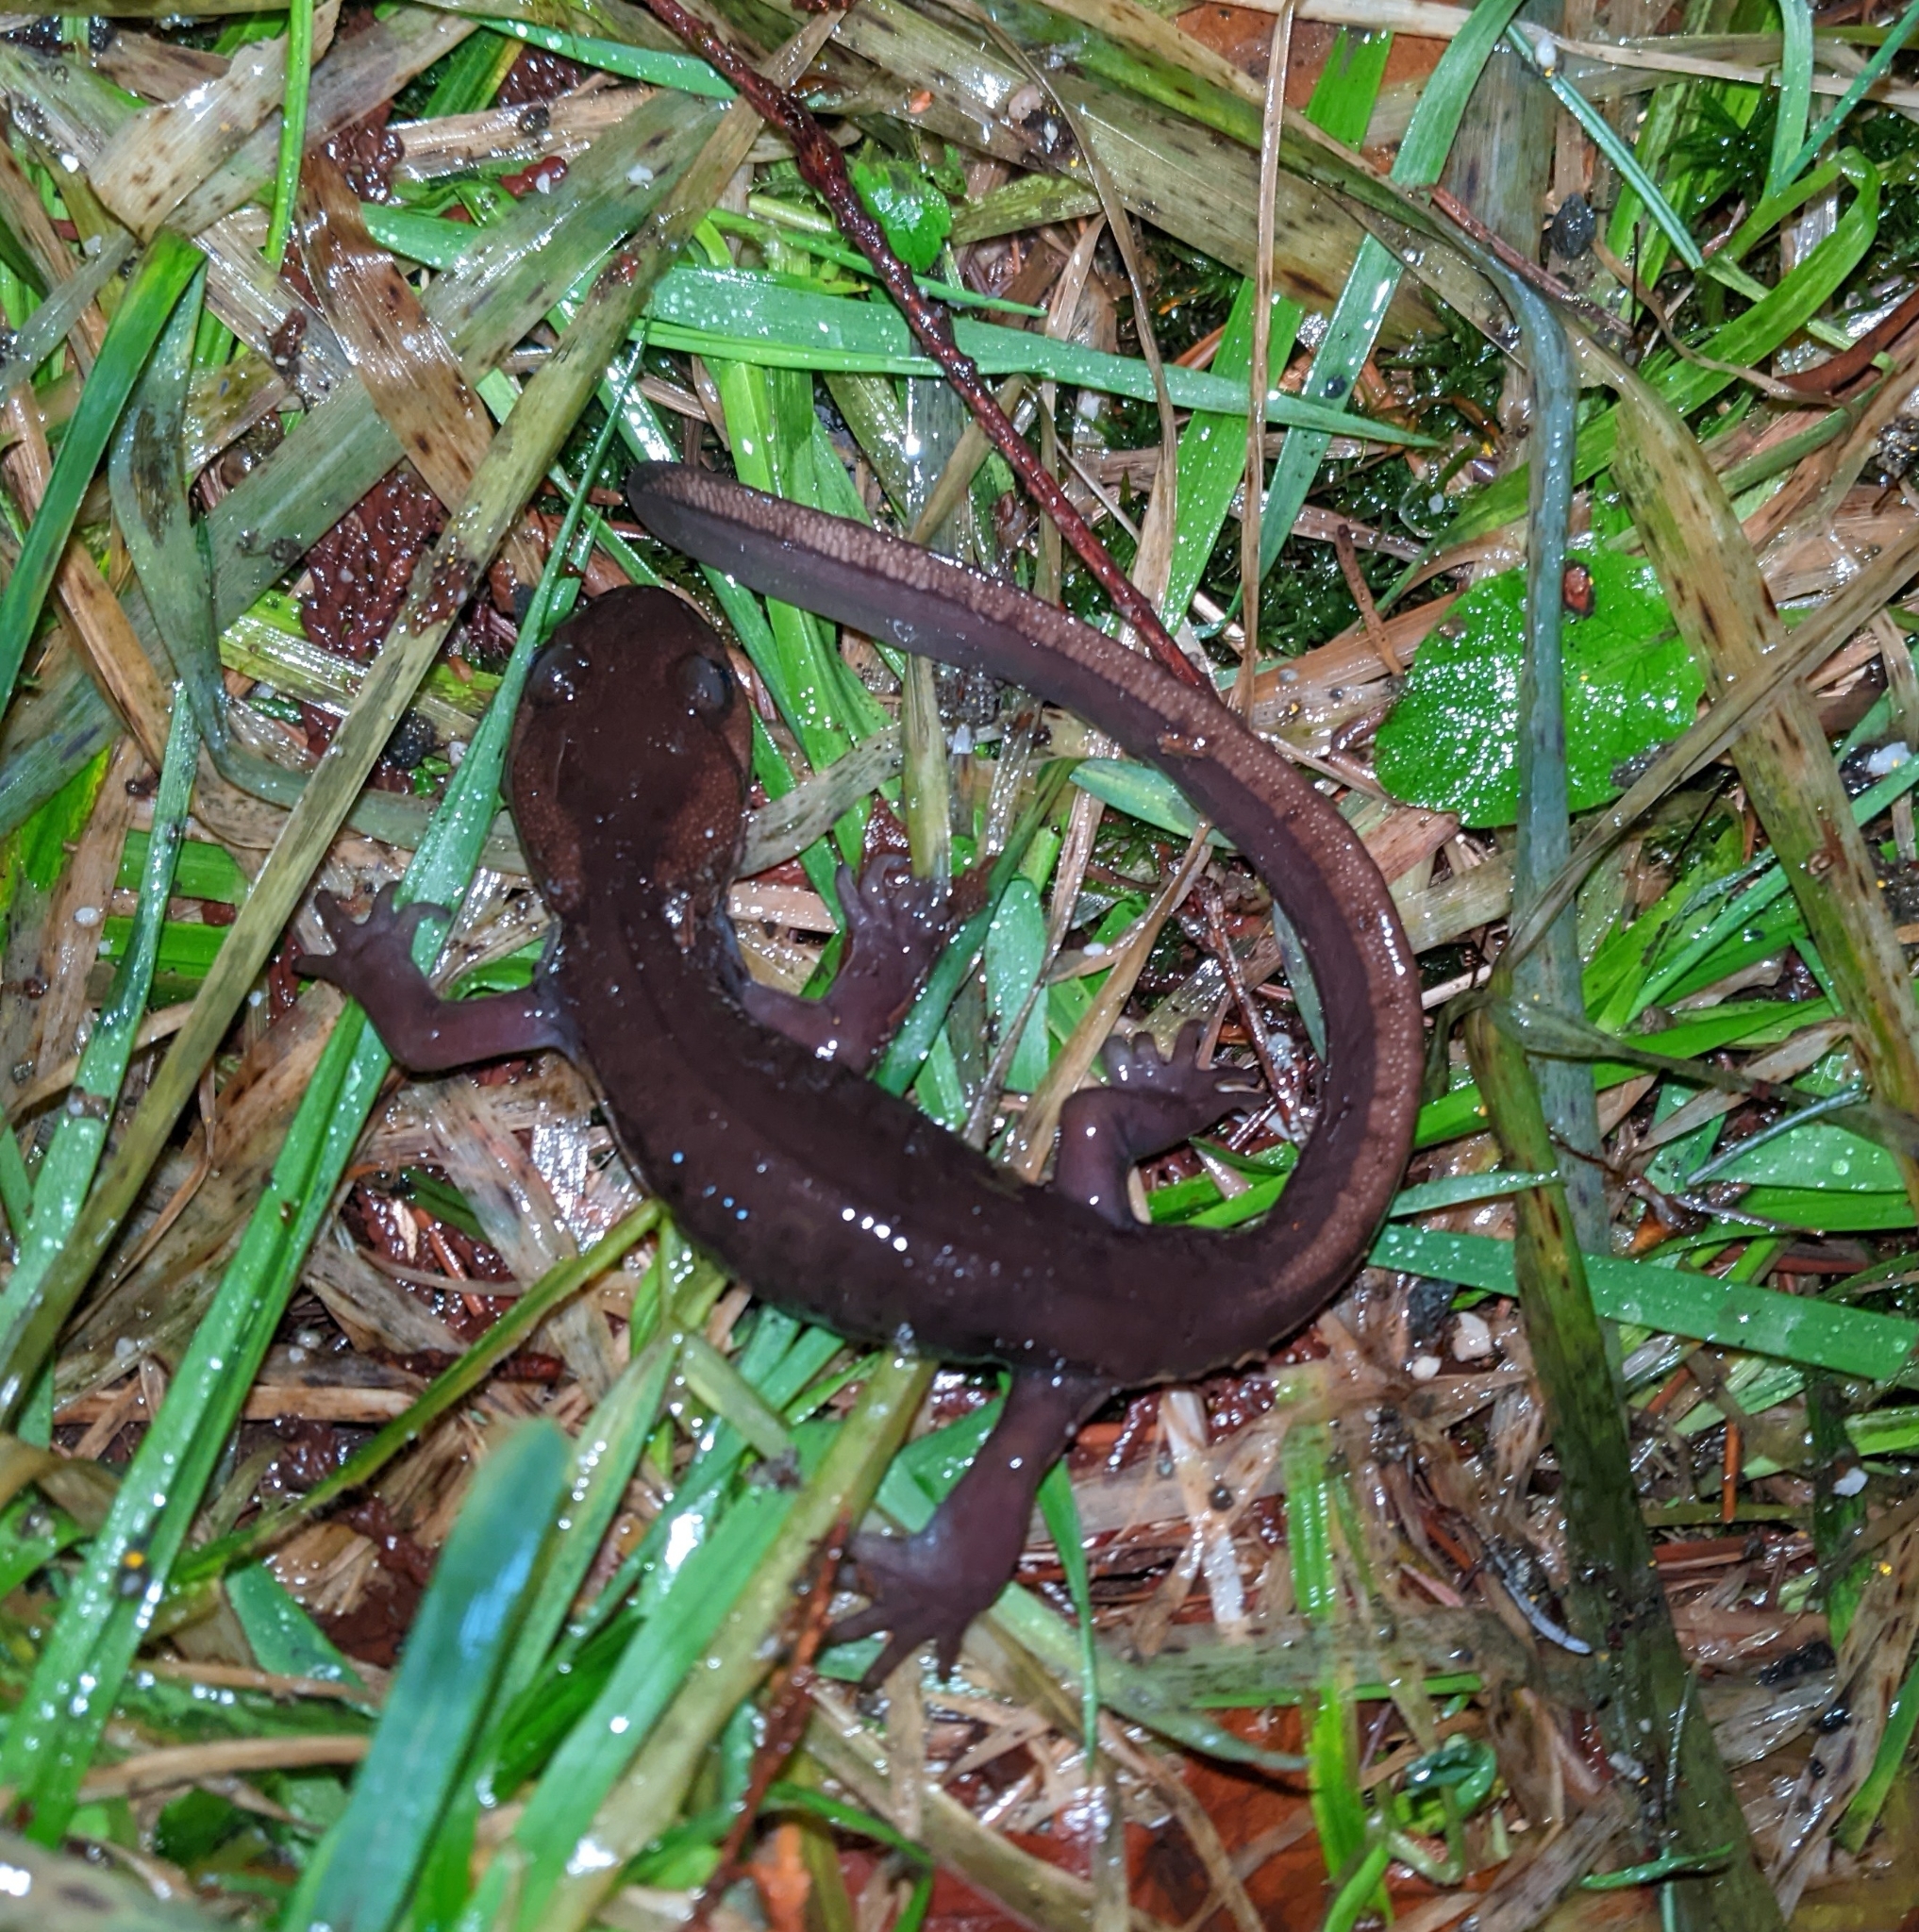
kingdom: Animalia
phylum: Chordata
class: Amphibia
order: Caudata
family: Ambystomatidae
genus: Ambystoma
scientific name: Ambystoma gracile
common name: Northwestern salamander
